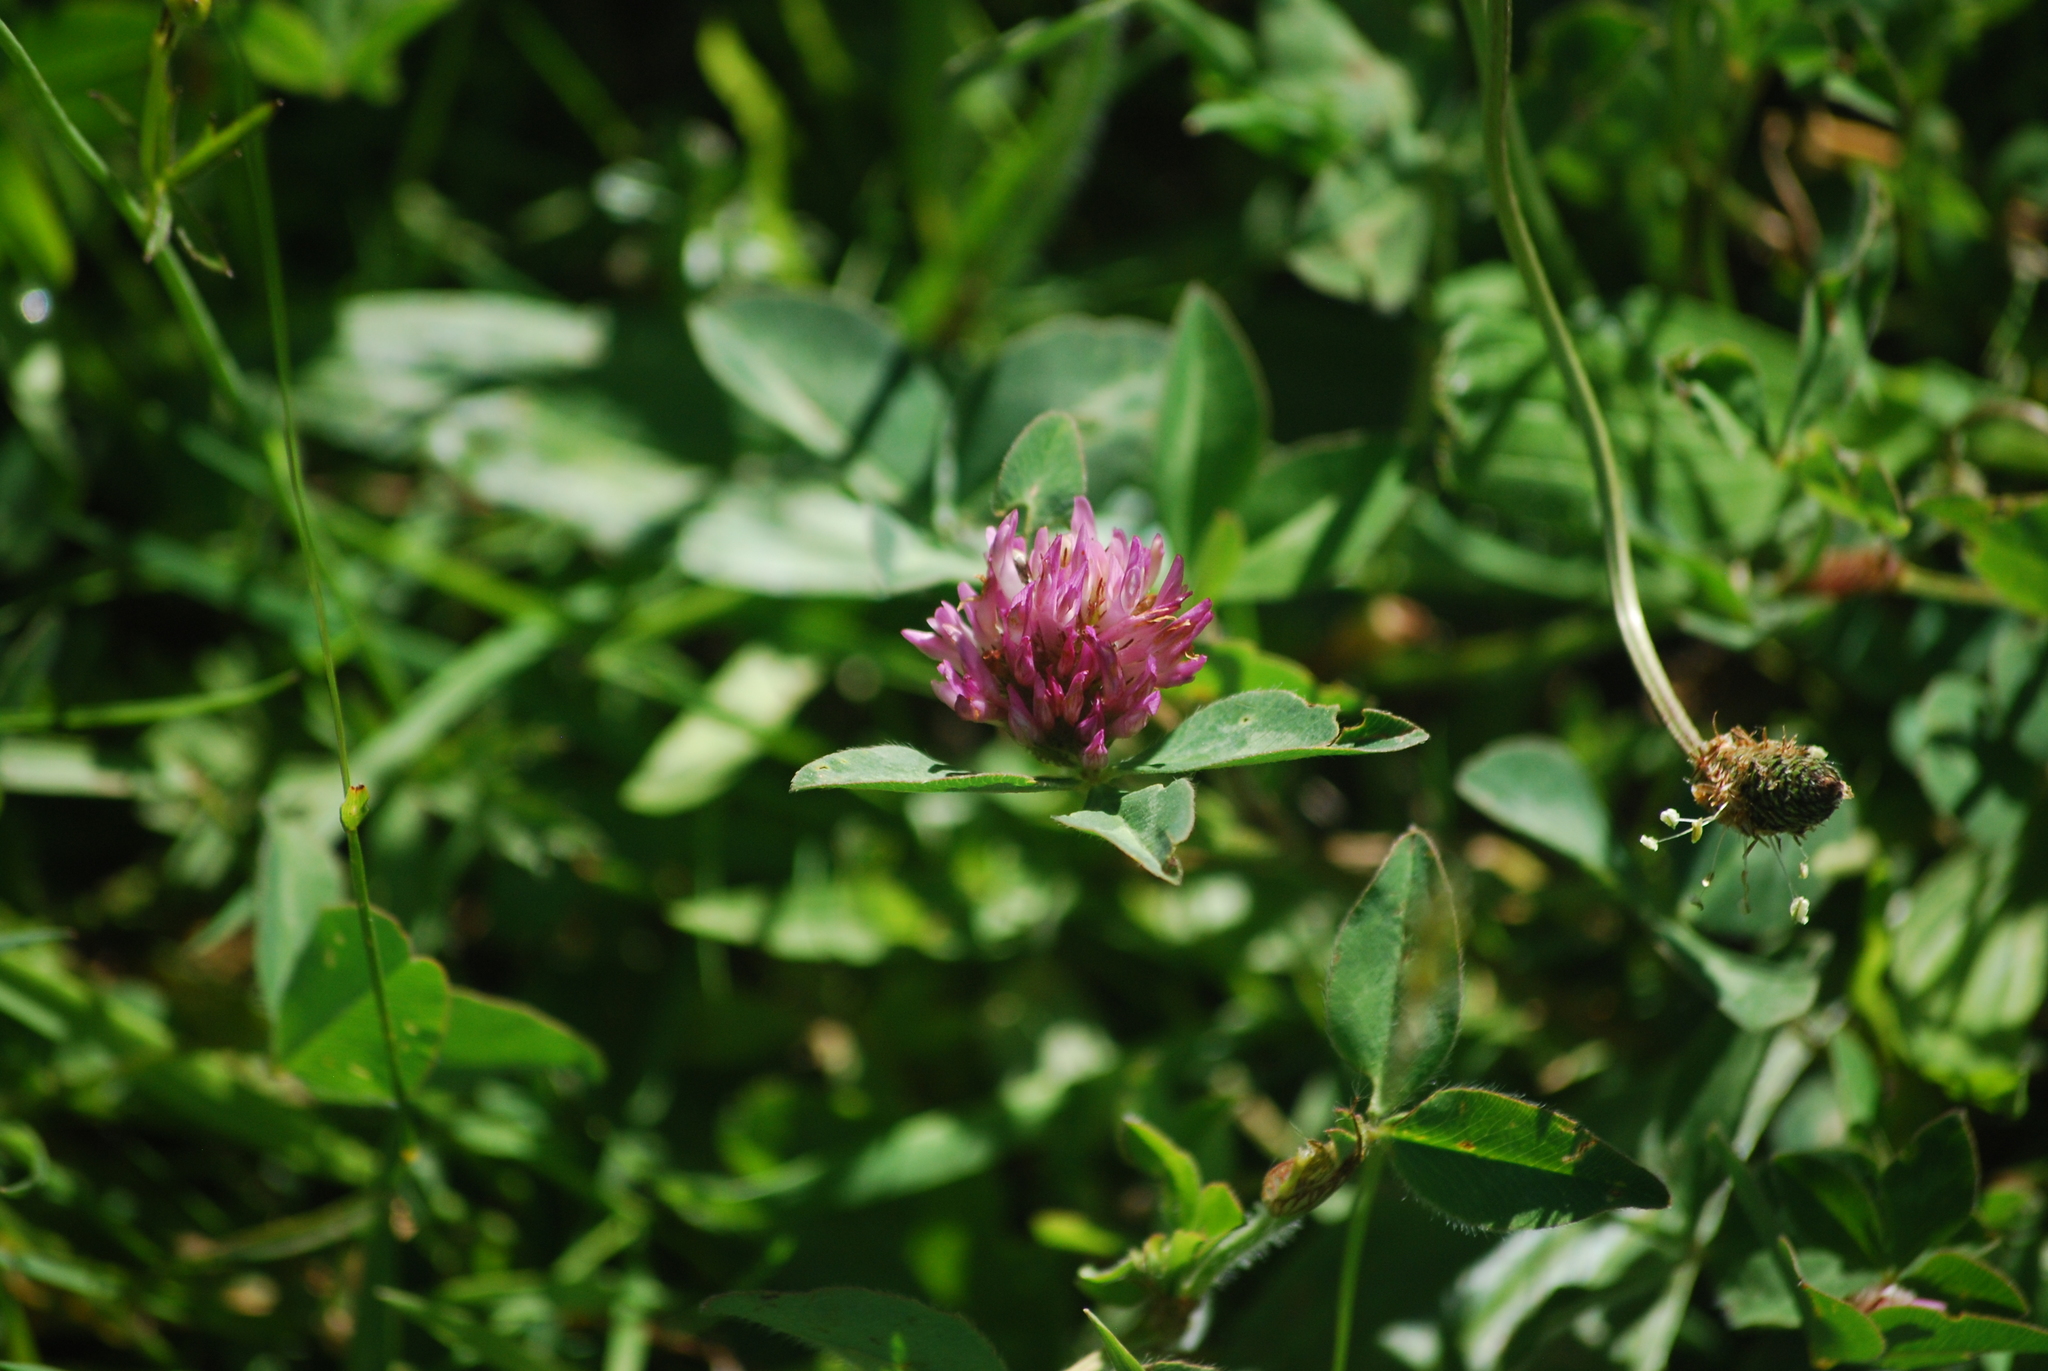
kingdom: Plantae
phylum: Tracheophyta
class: Magnoliopsida
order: Fabales
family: Fabaceae
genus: Trifolium
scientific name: Trifolium pratense
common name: Red clover
